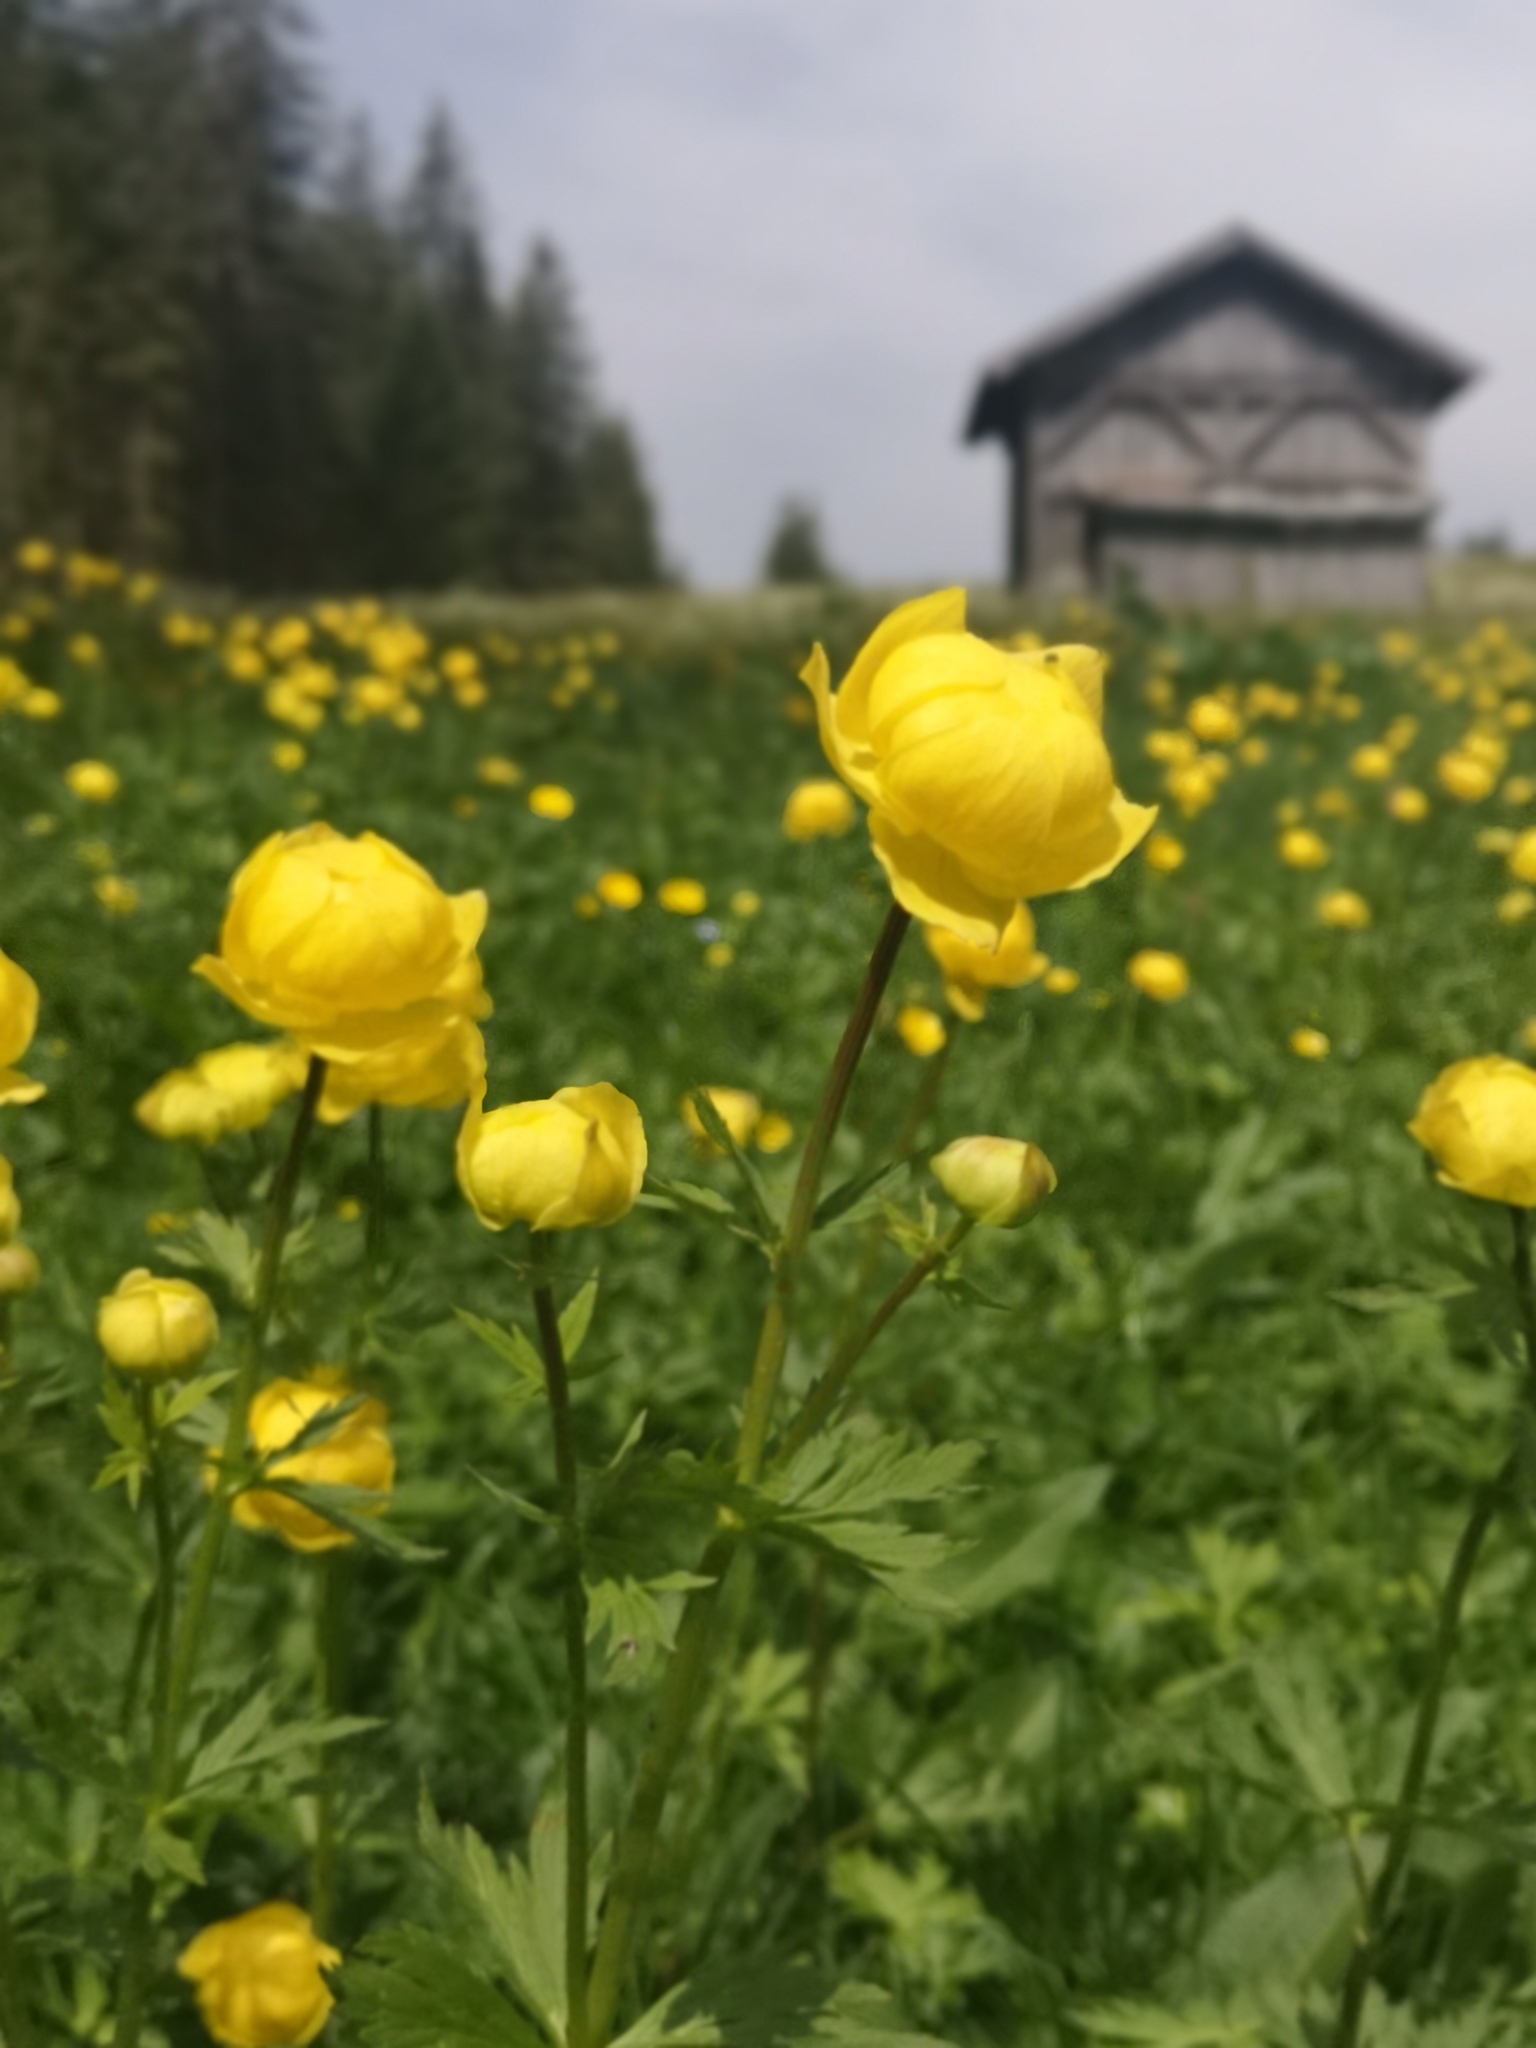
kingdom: Plantae
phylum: Tracheophyta
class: Magnoliopsida
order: Ranunculales
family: Ranunculaceae
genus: Trollius
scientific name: Trollius europaeus
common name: European globeflower
